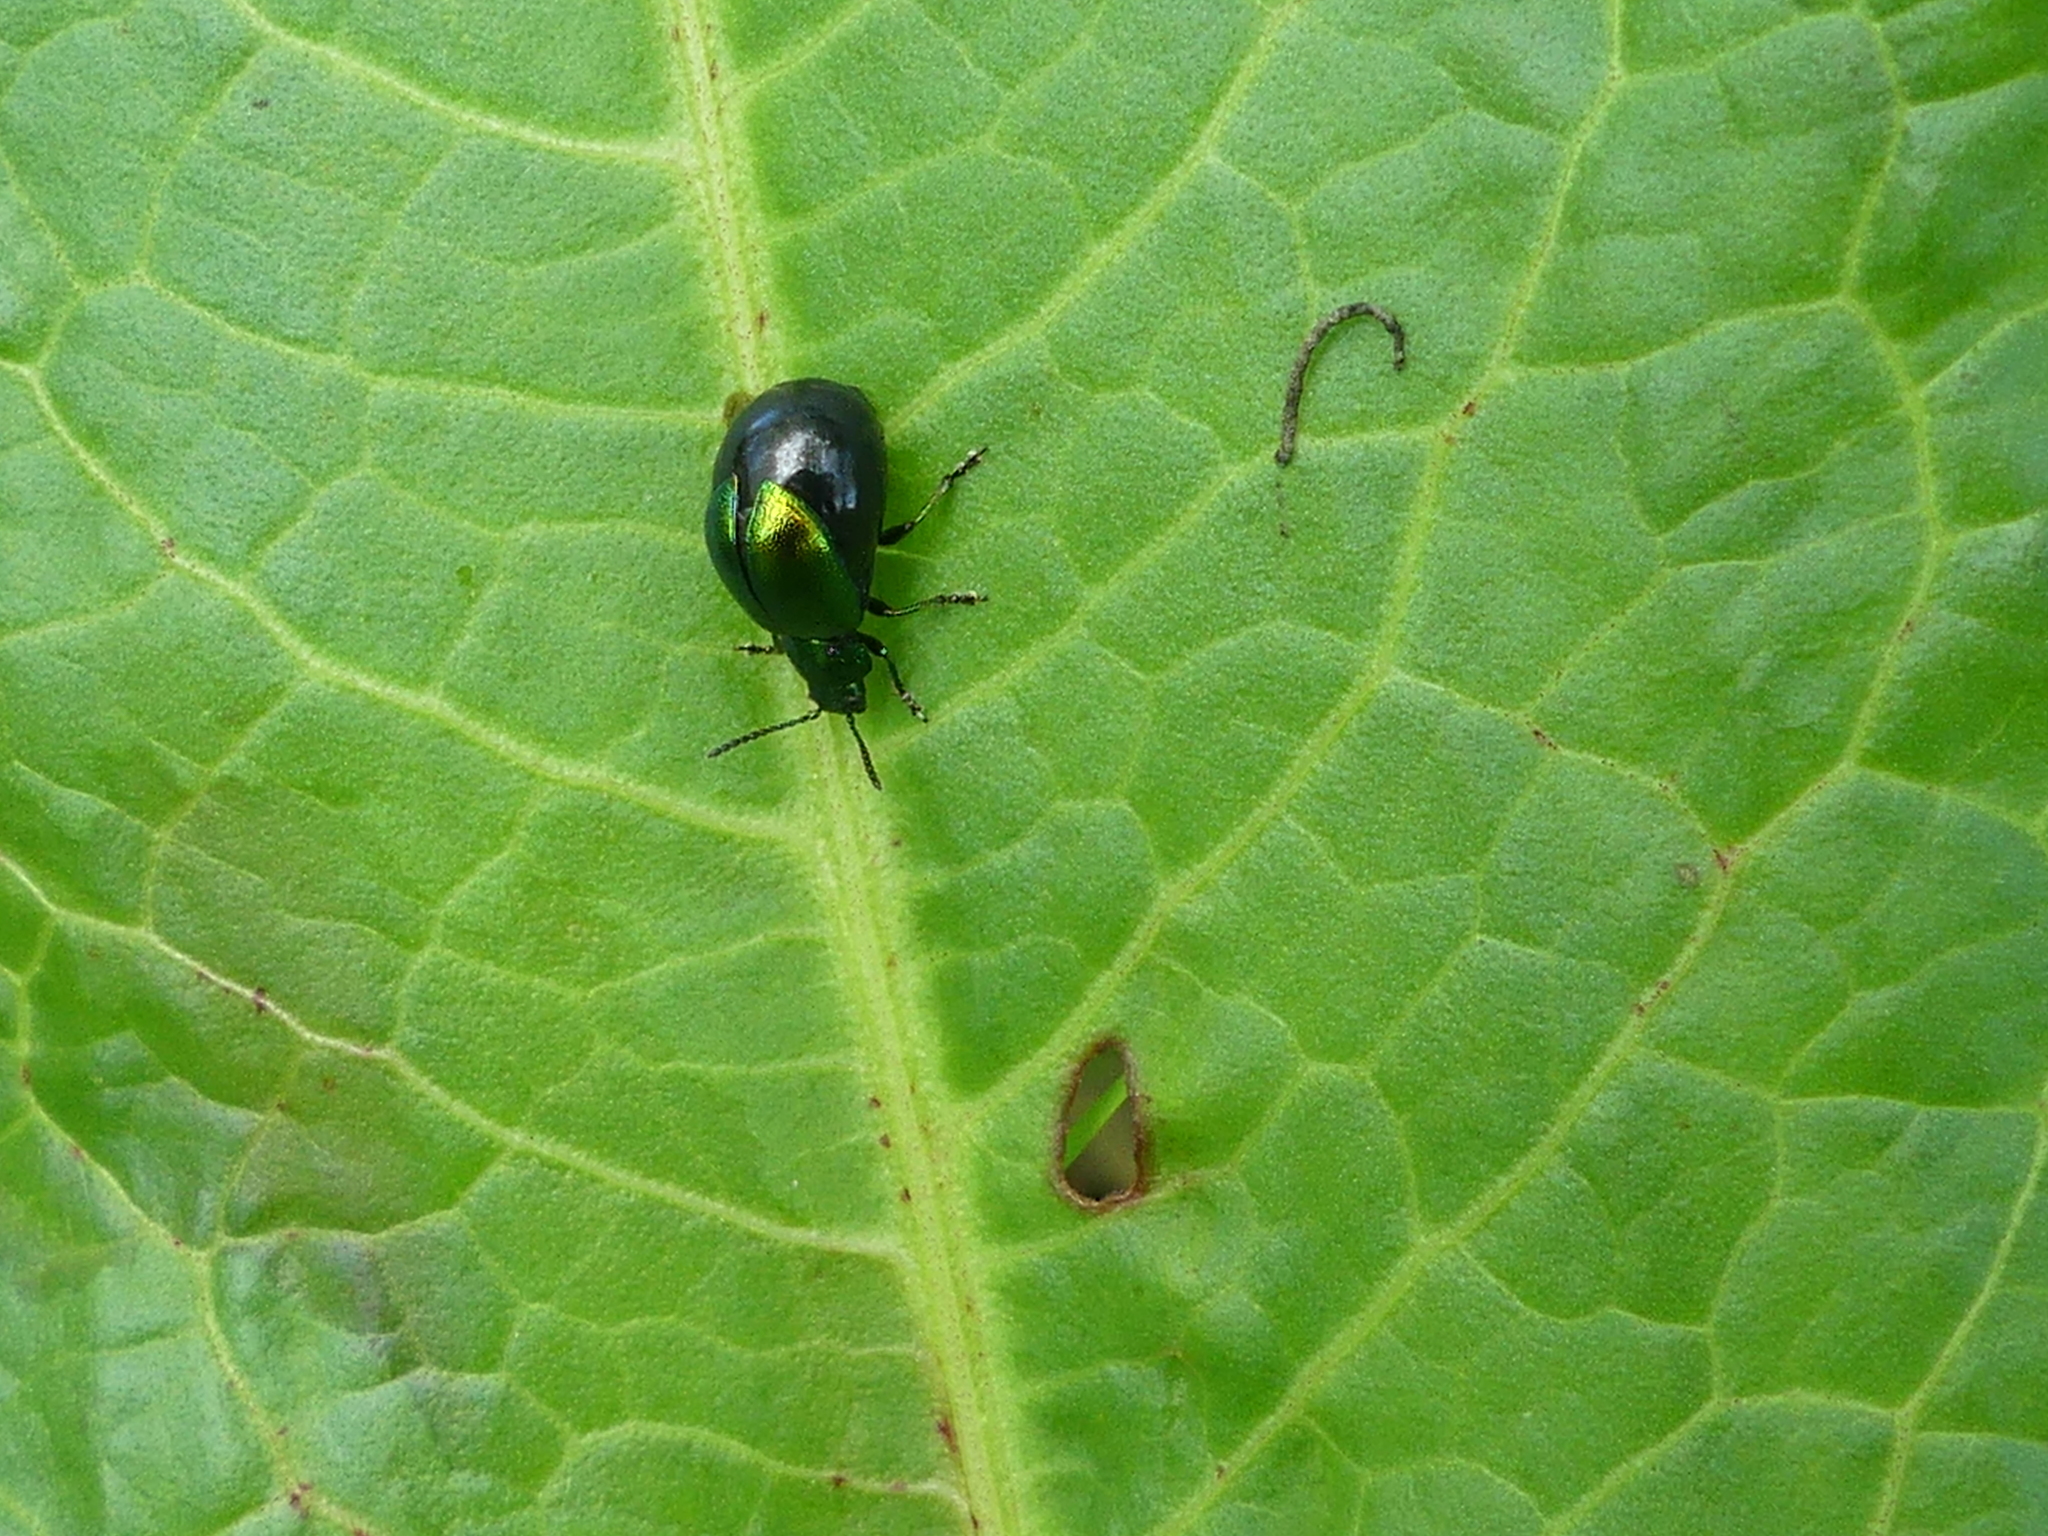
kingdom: Animalia
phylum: Arthropoda
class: Insecta
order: Coleoptera
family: Chrysomelidae
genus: Gastrophysa
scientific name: Gastrophysa viridula
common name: Green dock beetle
